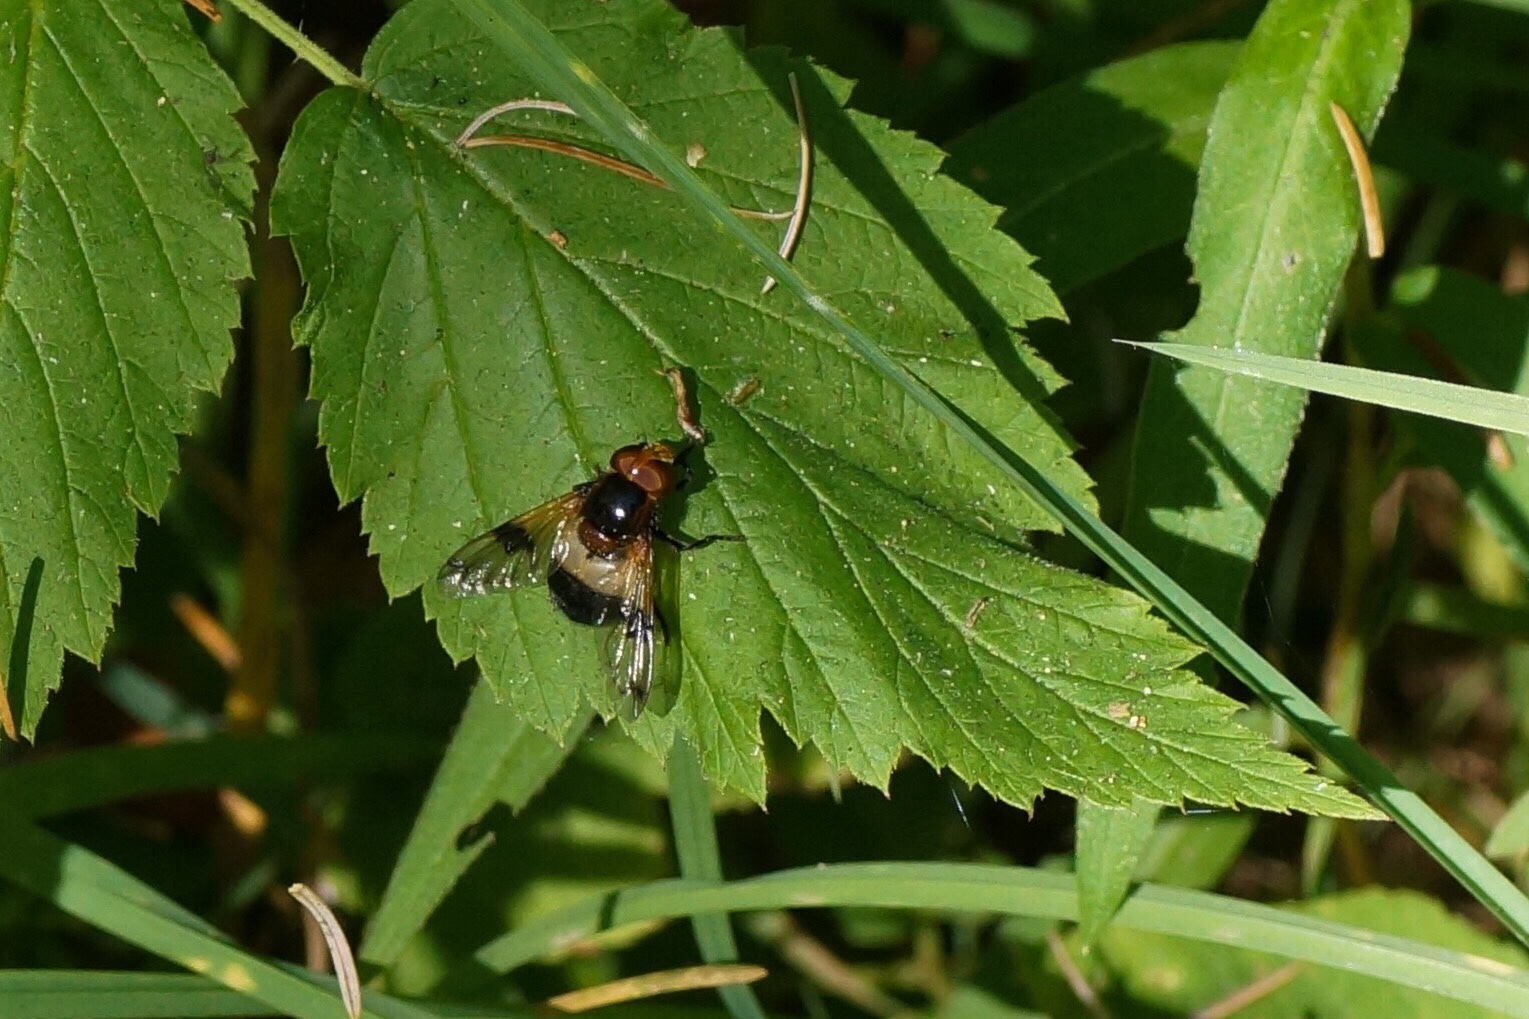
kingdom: Animalia
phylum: Arthropoda
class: Insecta
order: Diptera
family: Syrphidae
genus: Volucella
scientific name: Volucella pellucens
